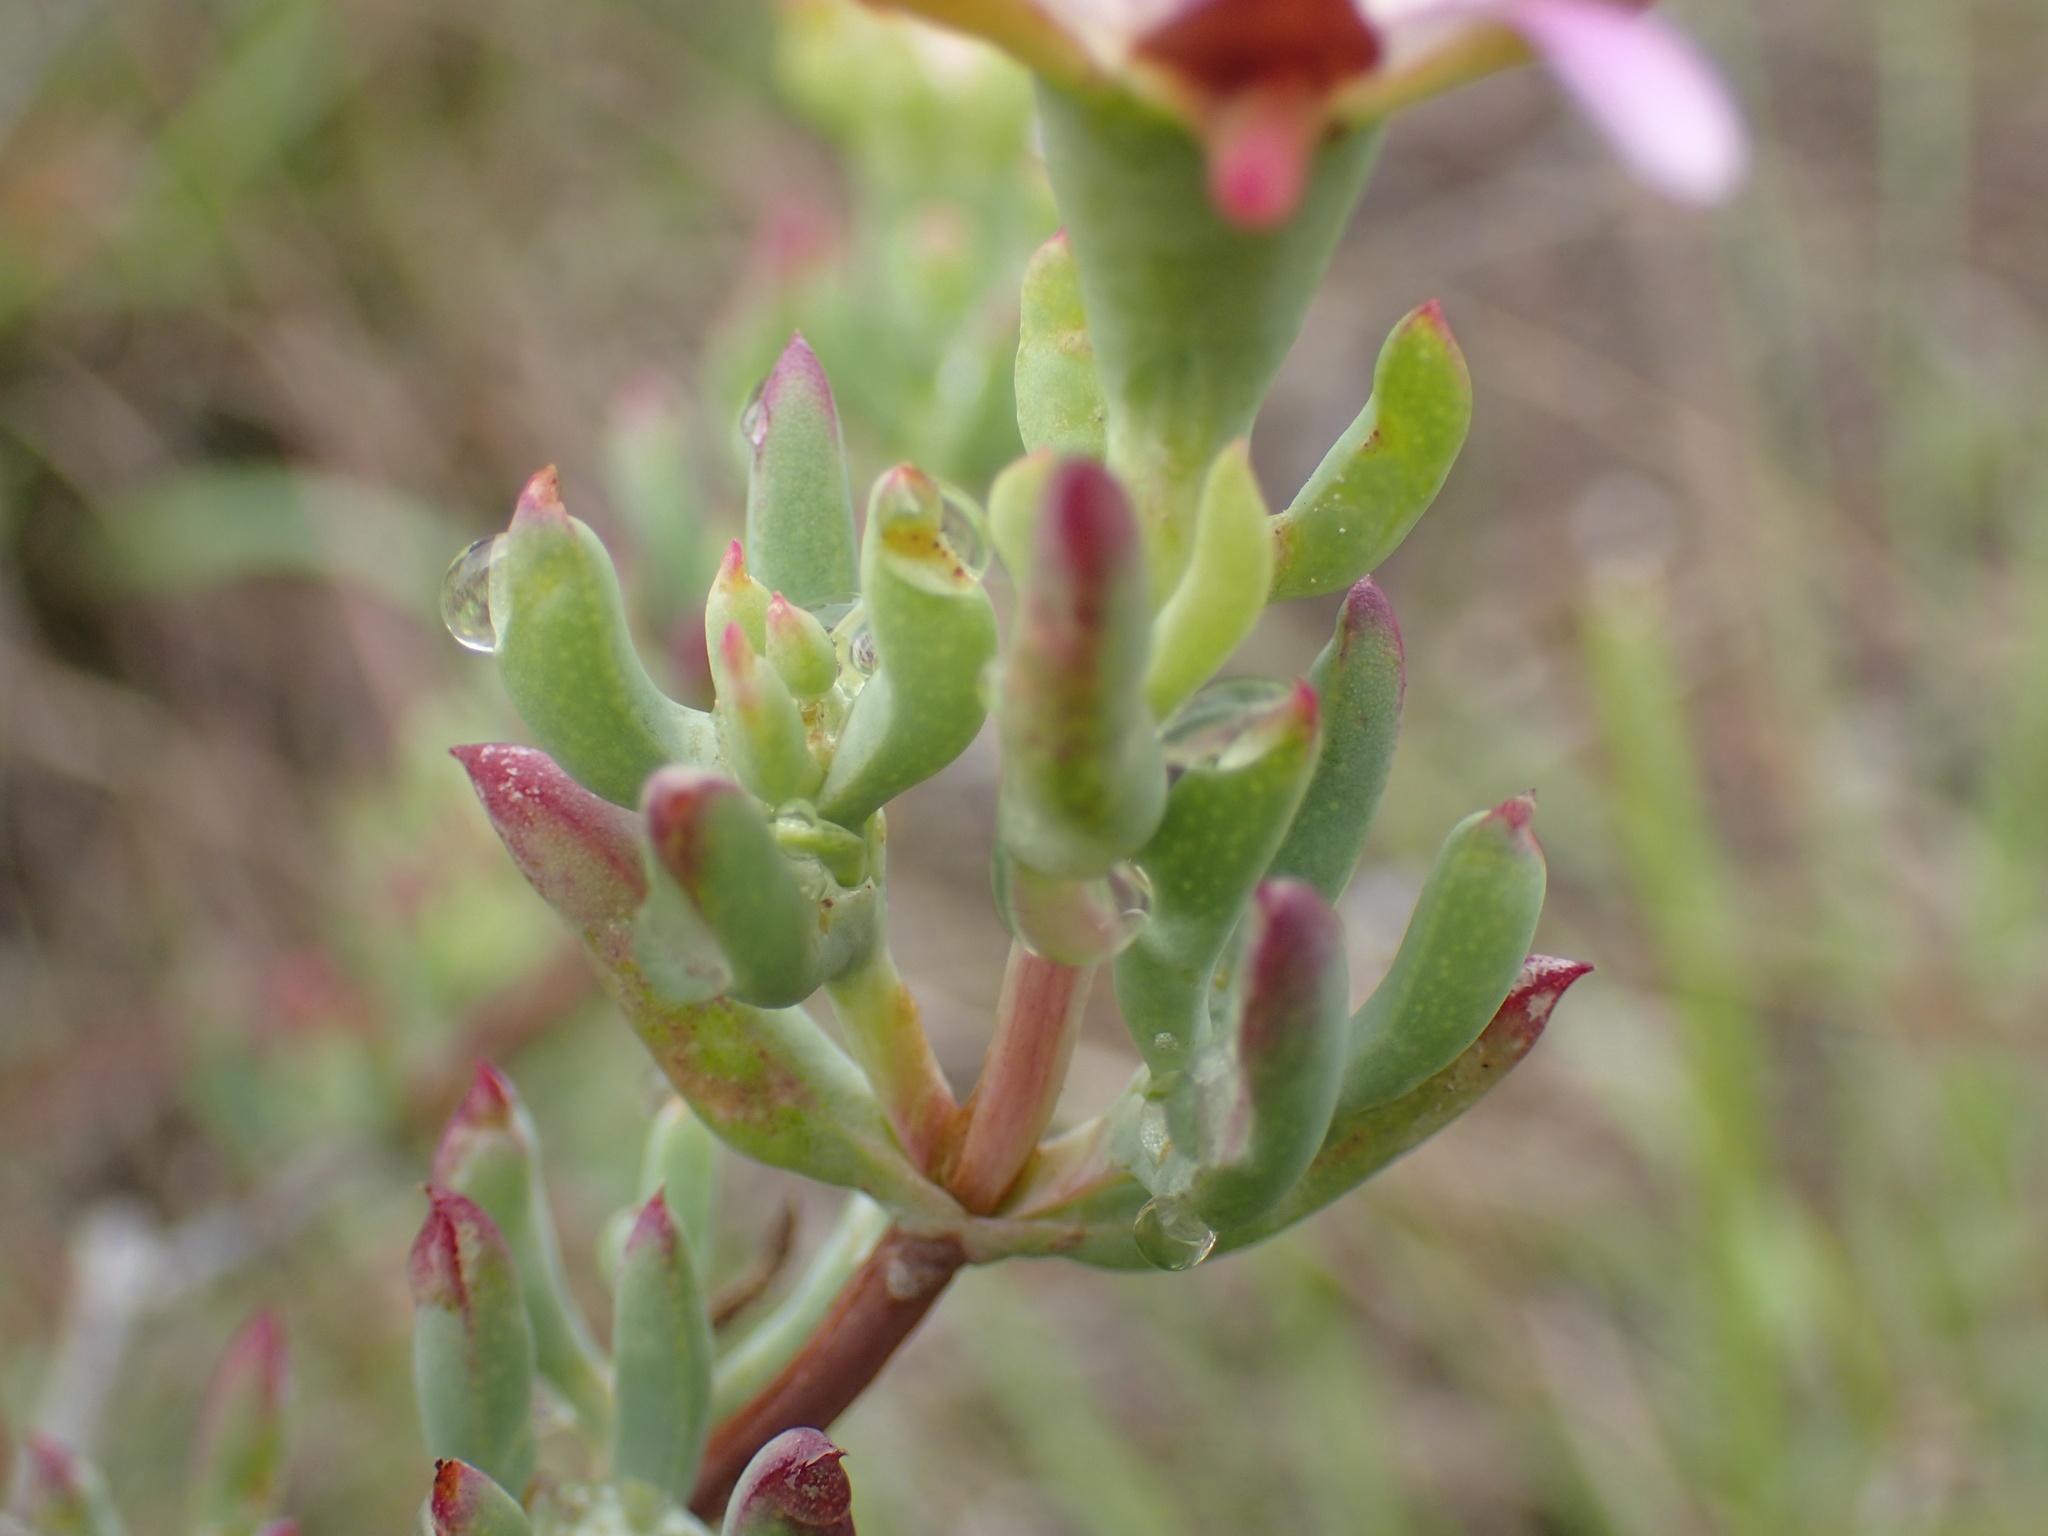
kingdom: Plantae
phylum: Tracheophyta
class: Magnoliopsida
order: Caryophyllales
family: Aizoaceae
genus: Lampranthus
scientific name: Lampranthus algoensis
